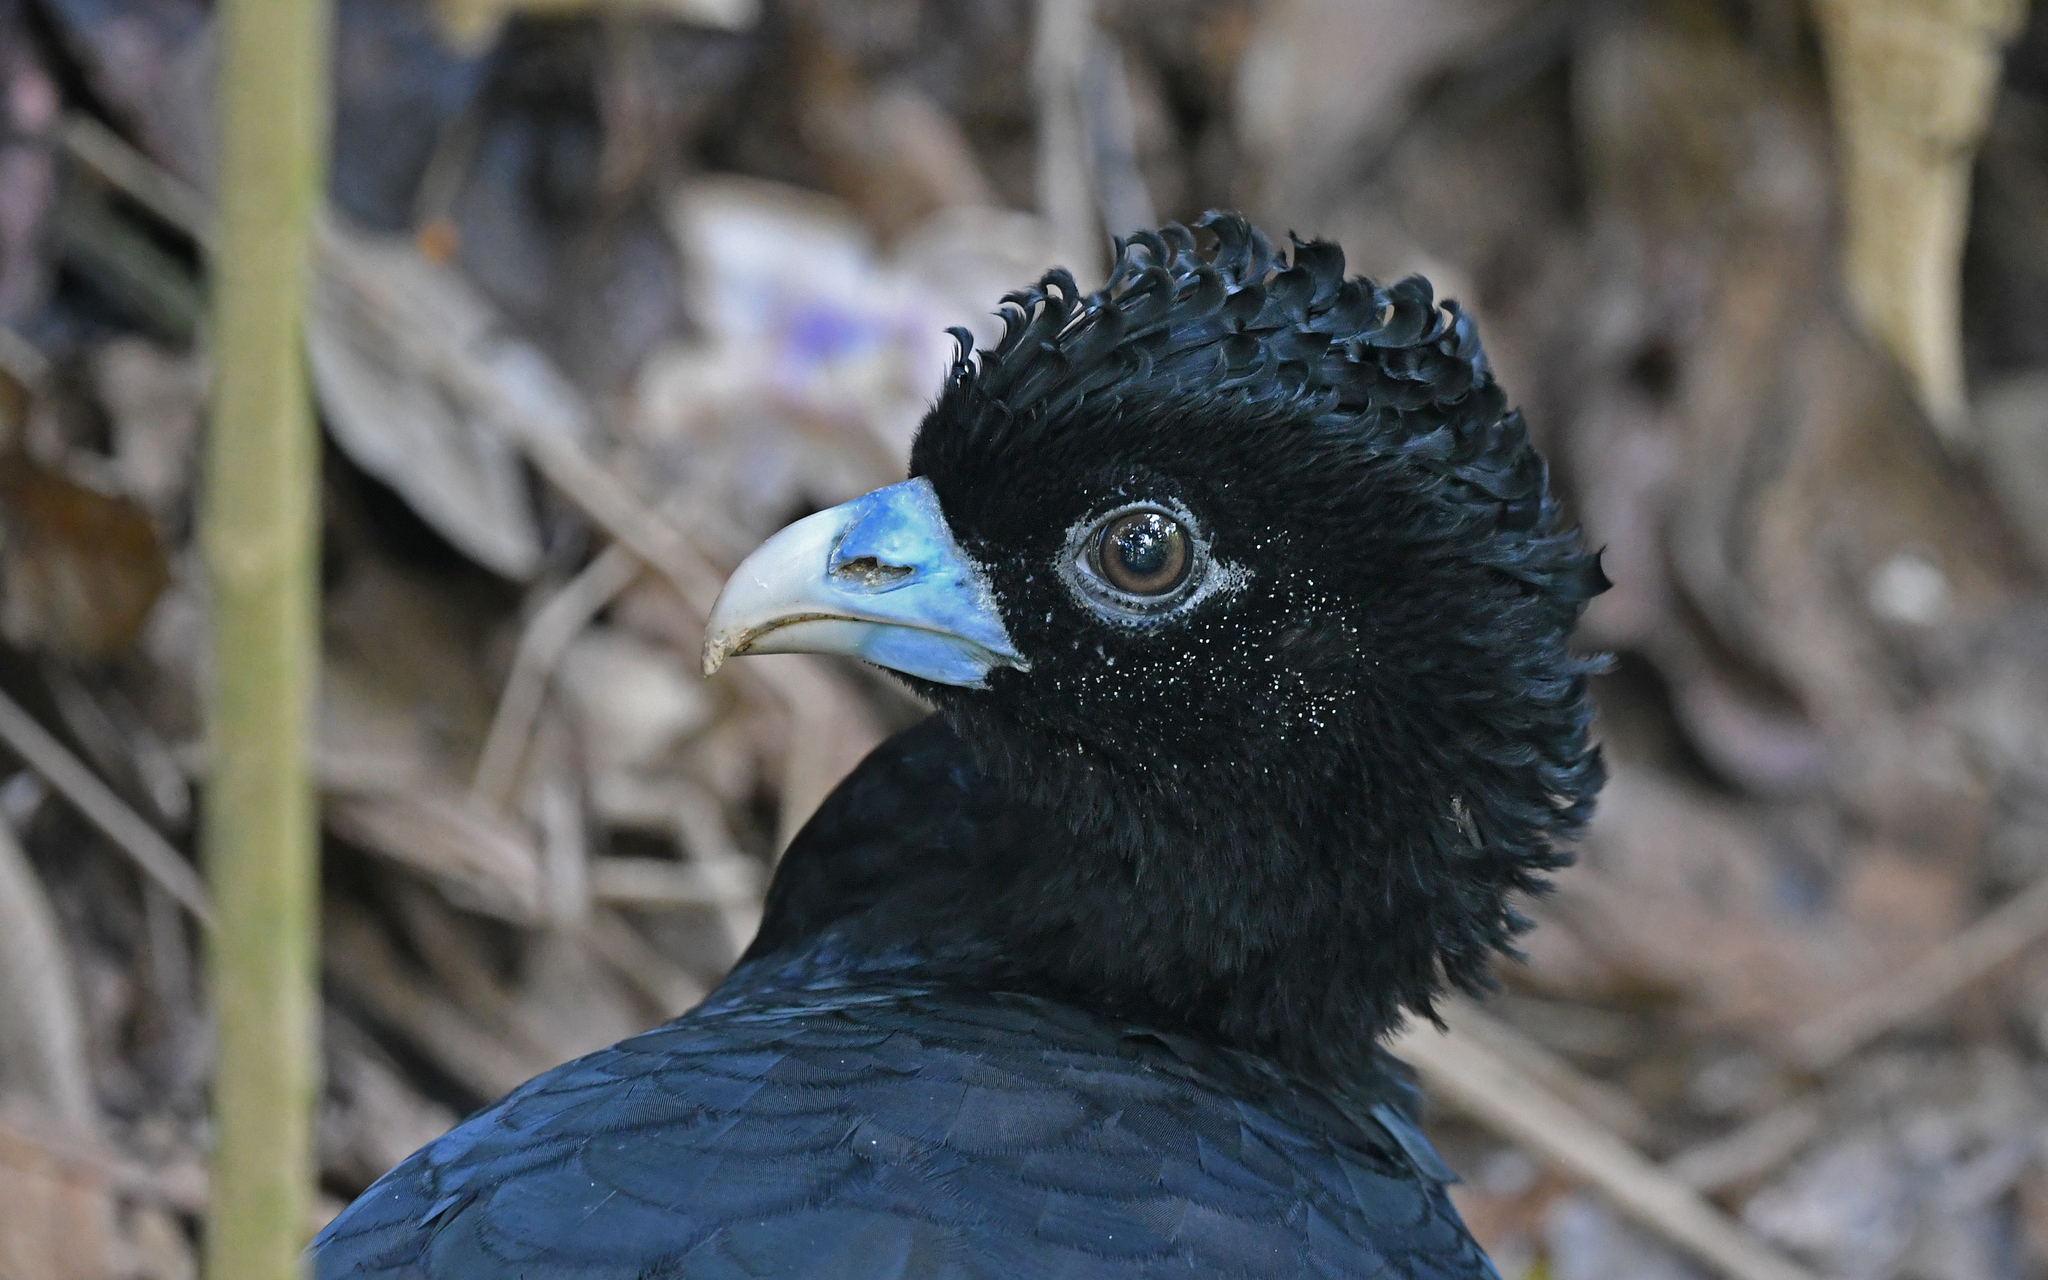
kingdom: Animalia
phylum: Chordata
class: Aves
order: Galliformes
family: Cracidae
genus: Crax
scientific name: Crax alberti
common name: Blue-billed curassow
